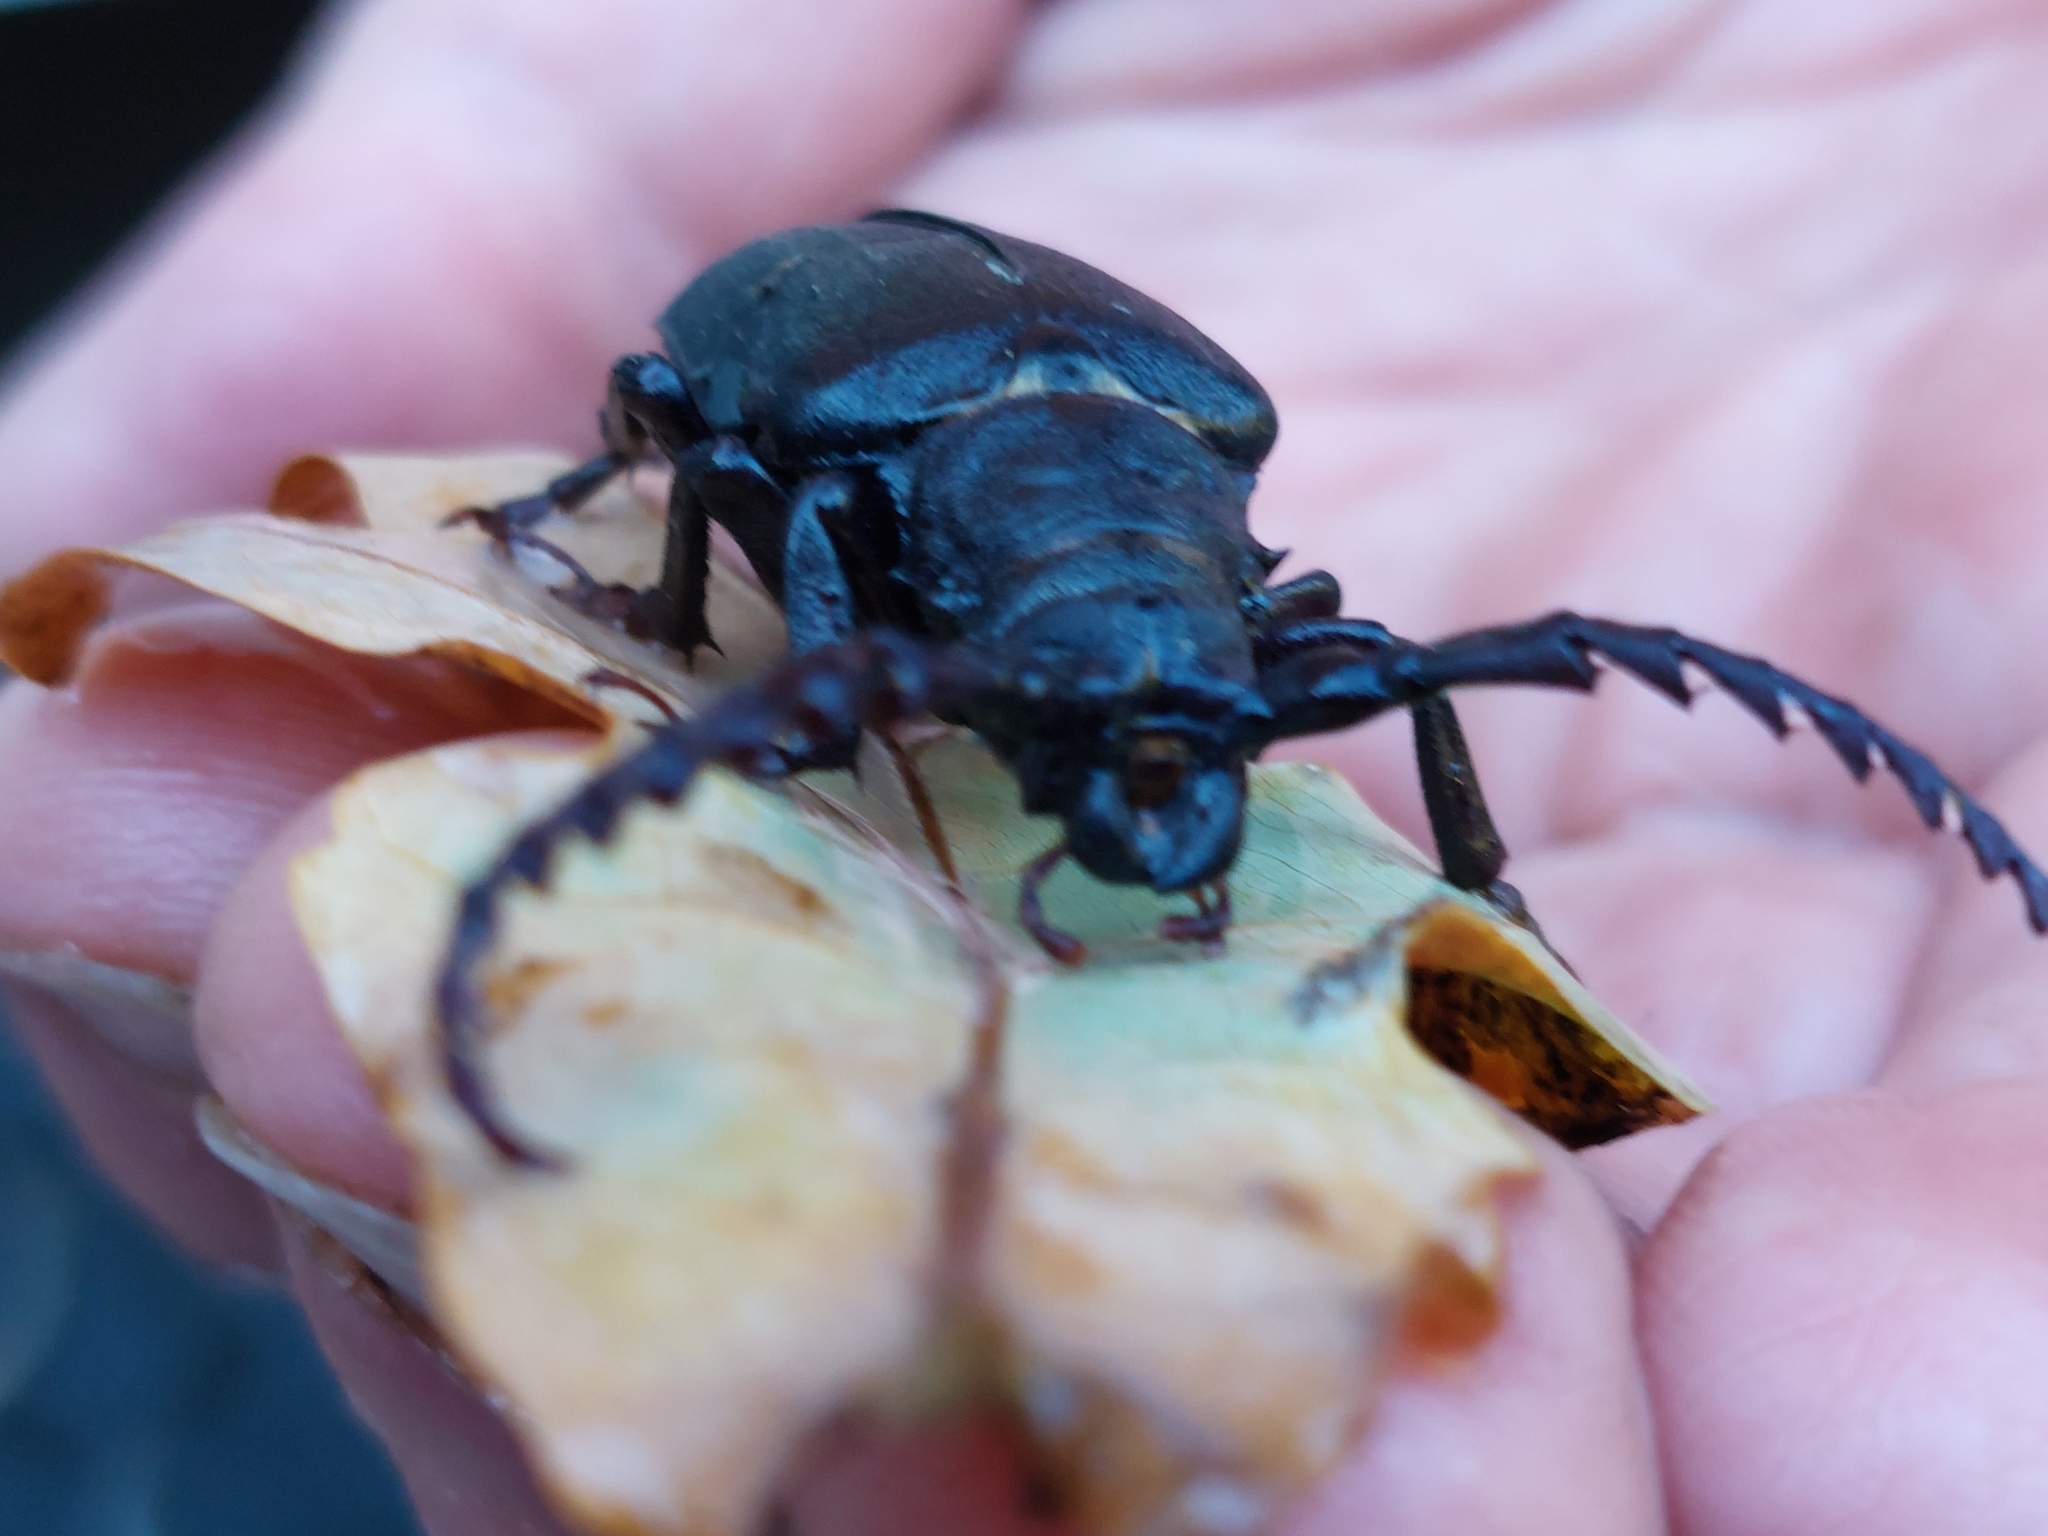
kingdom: Animalia
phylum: Arthropoda
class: Insecta
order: Coleoptera
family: Cerambycidae
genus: Prionus
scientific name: Prionus coriarius
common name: Tanner beetle
